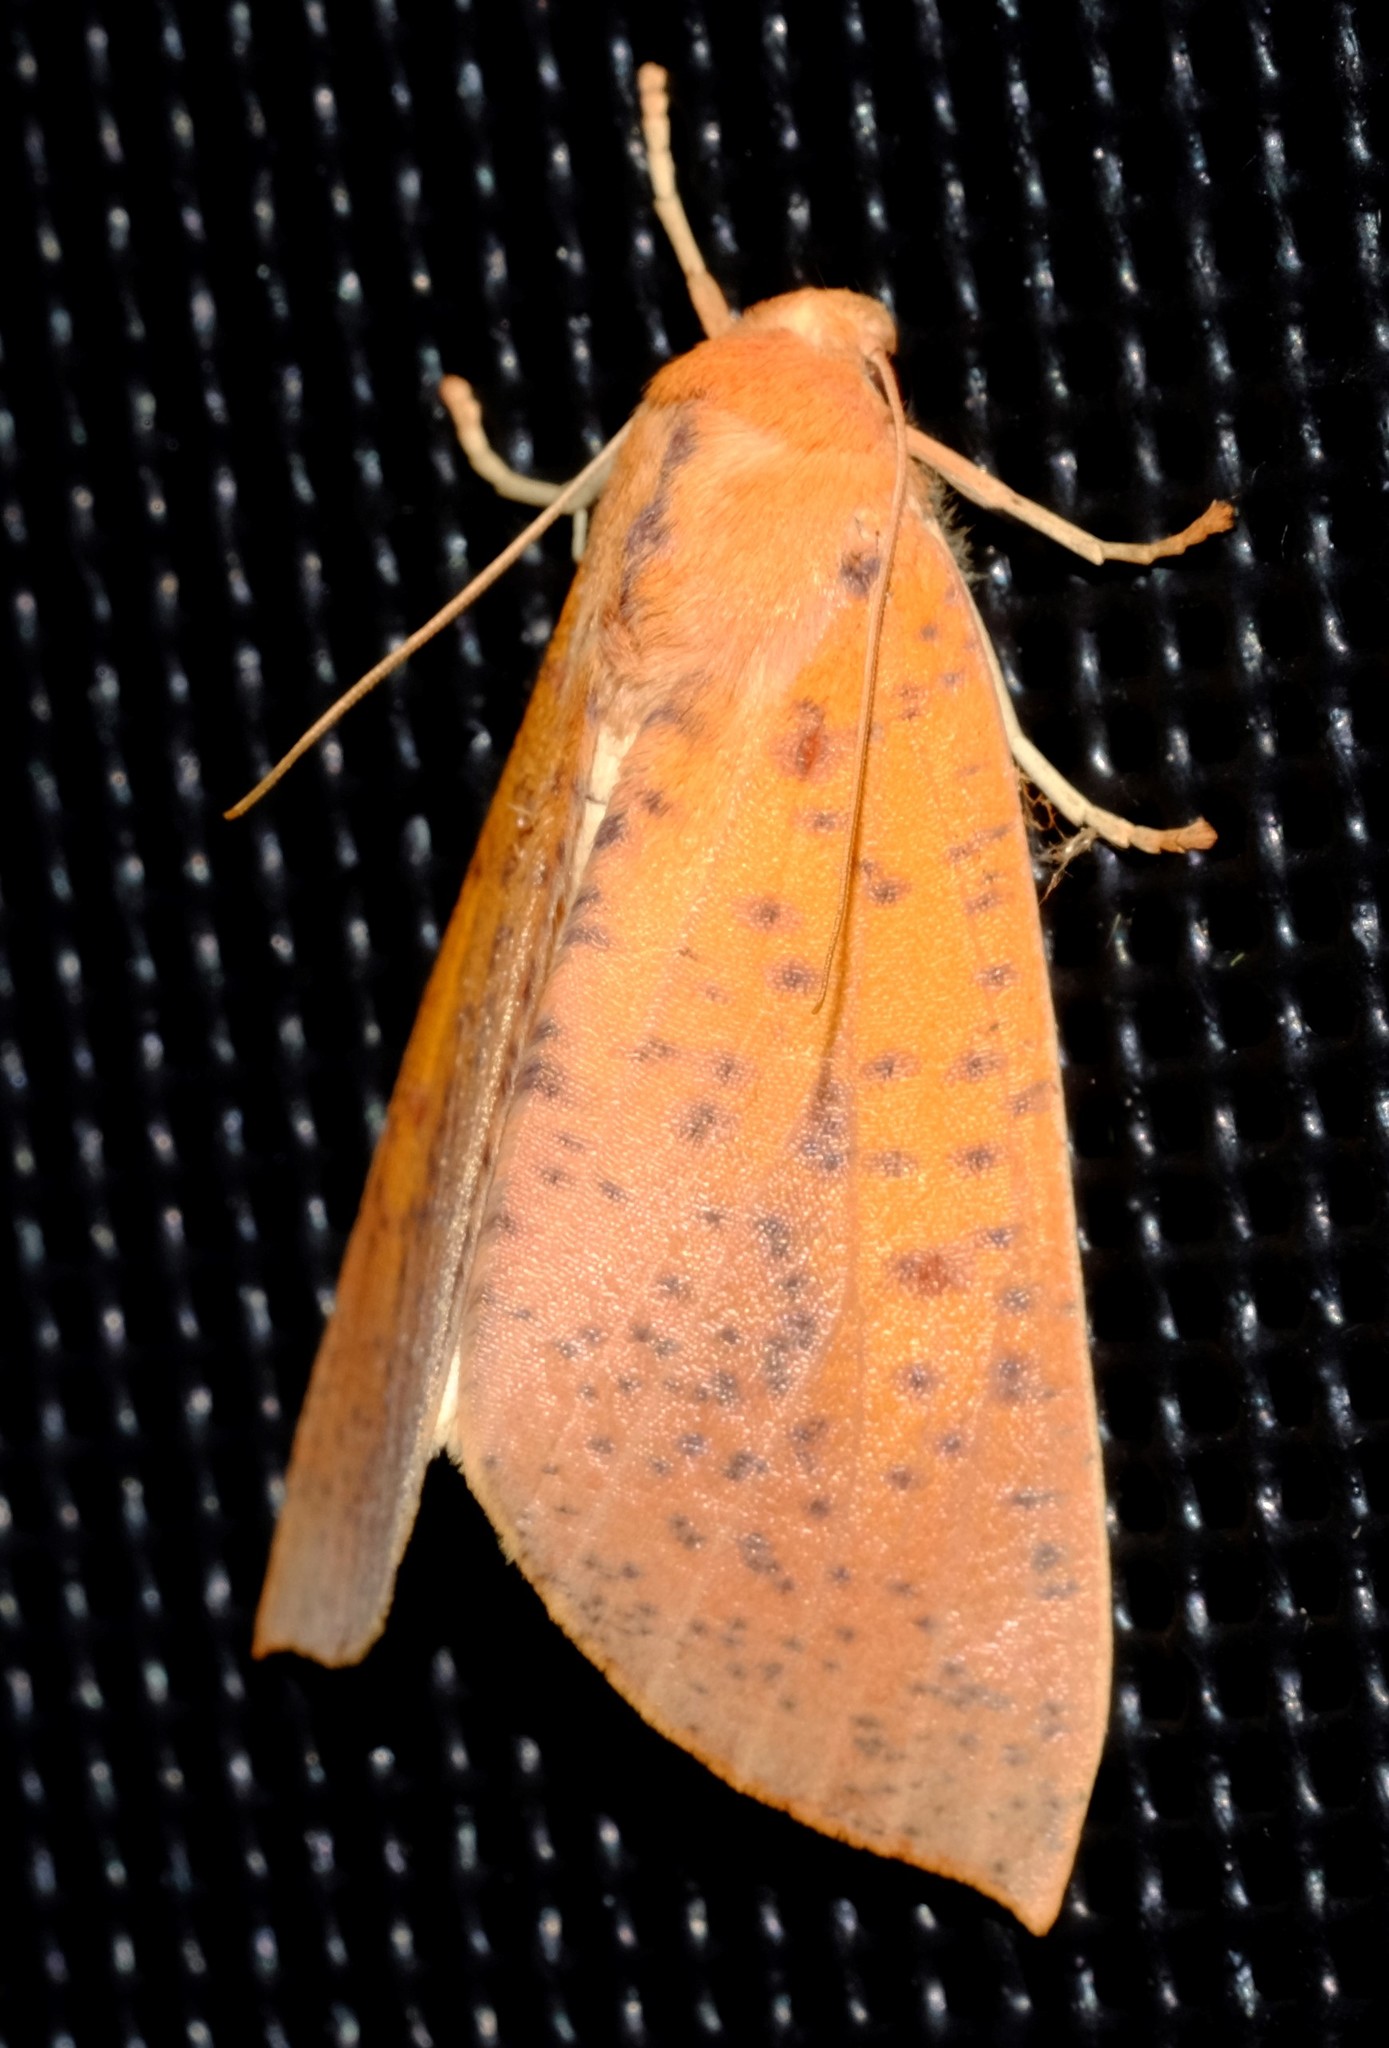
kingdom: Animalia
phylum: Arthropoda
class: Insecta
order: Lepidoptera
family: Geometridae
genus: Plesanemma
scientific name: Plesanemma fucata
